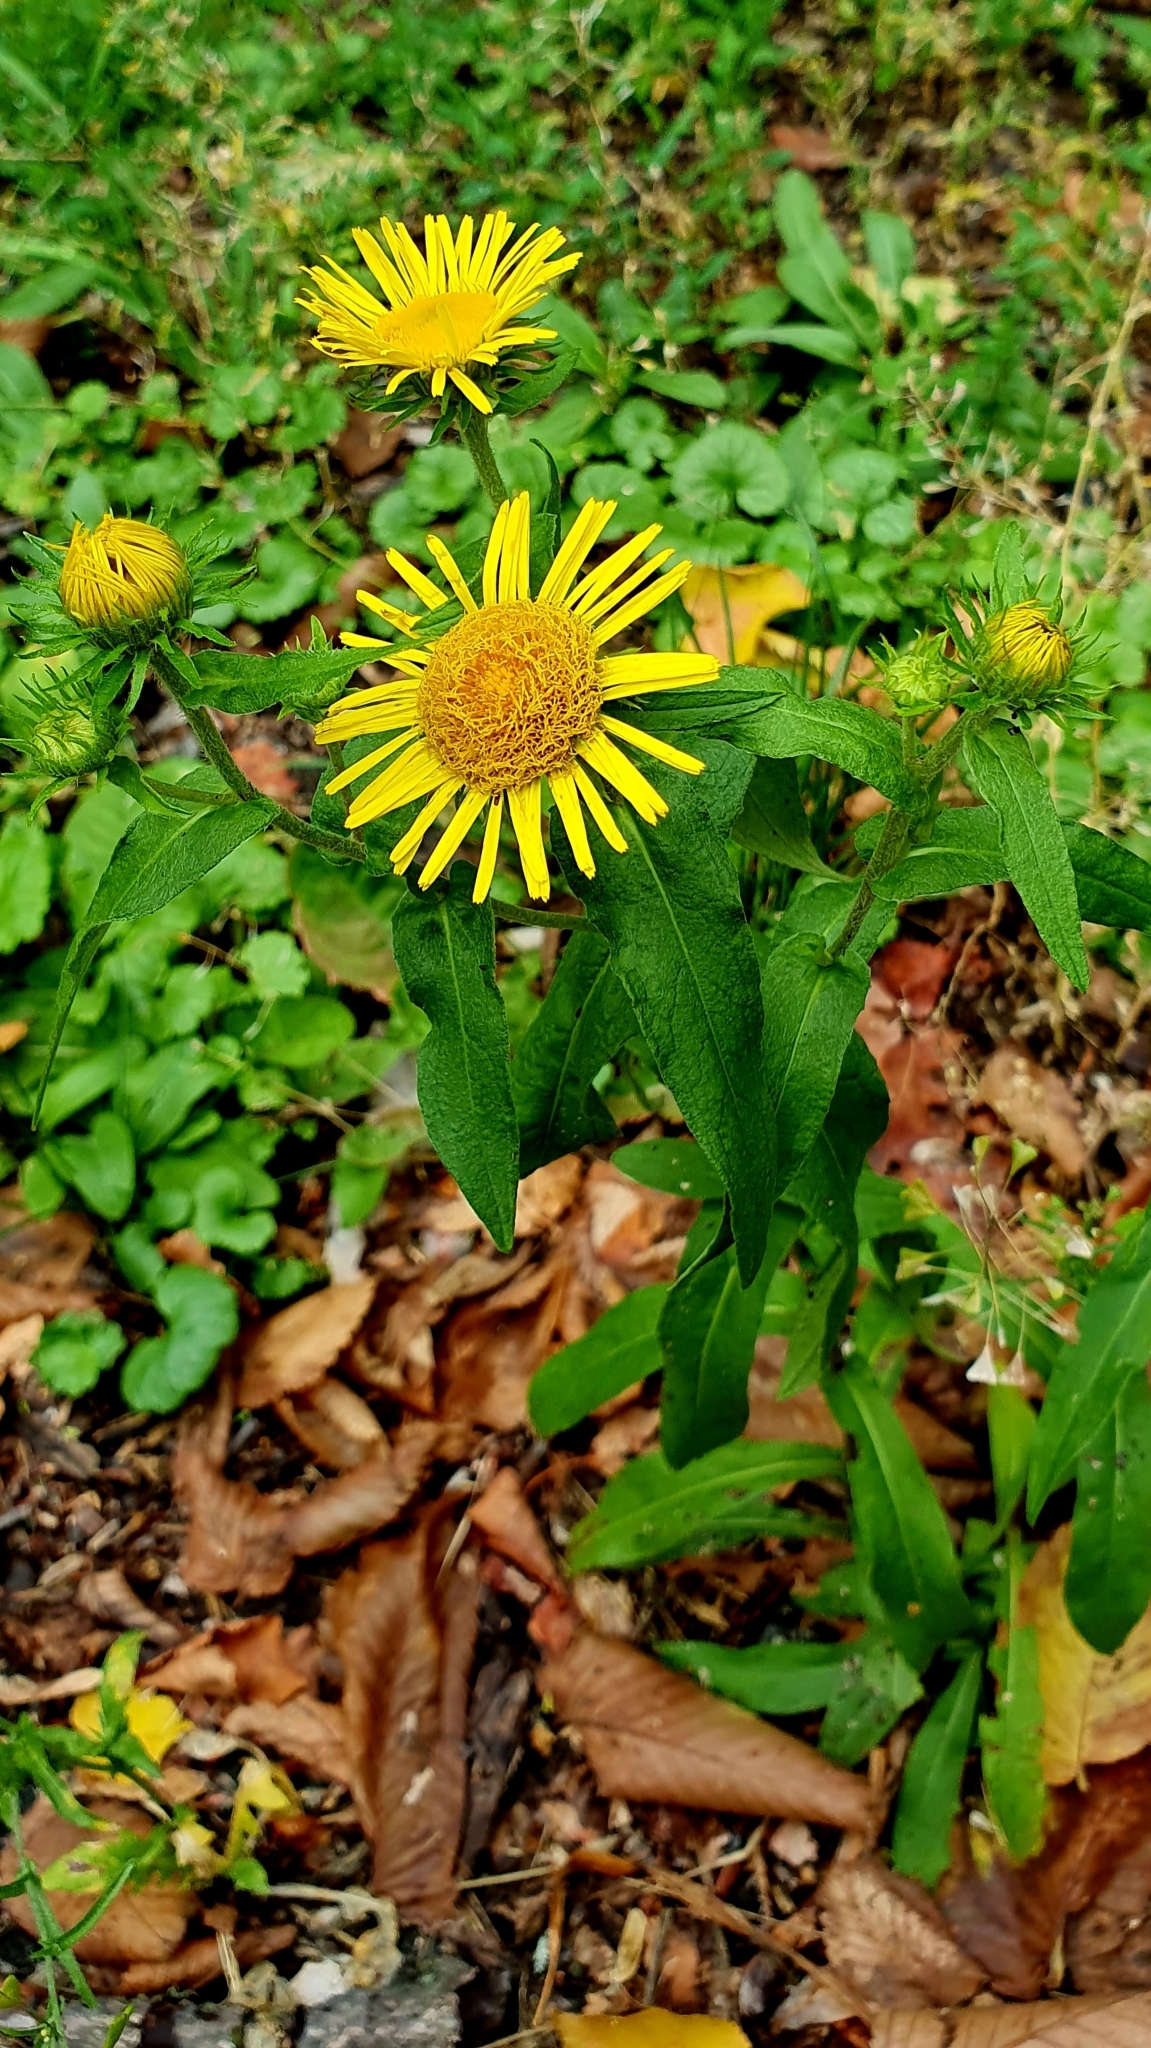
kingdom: Plantae
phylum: Tracheophyta
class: Magnoliopsida
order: Asterales
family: Asteraceae
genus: Pentanema
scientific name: Pentanema britannicum
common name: British elecampane
